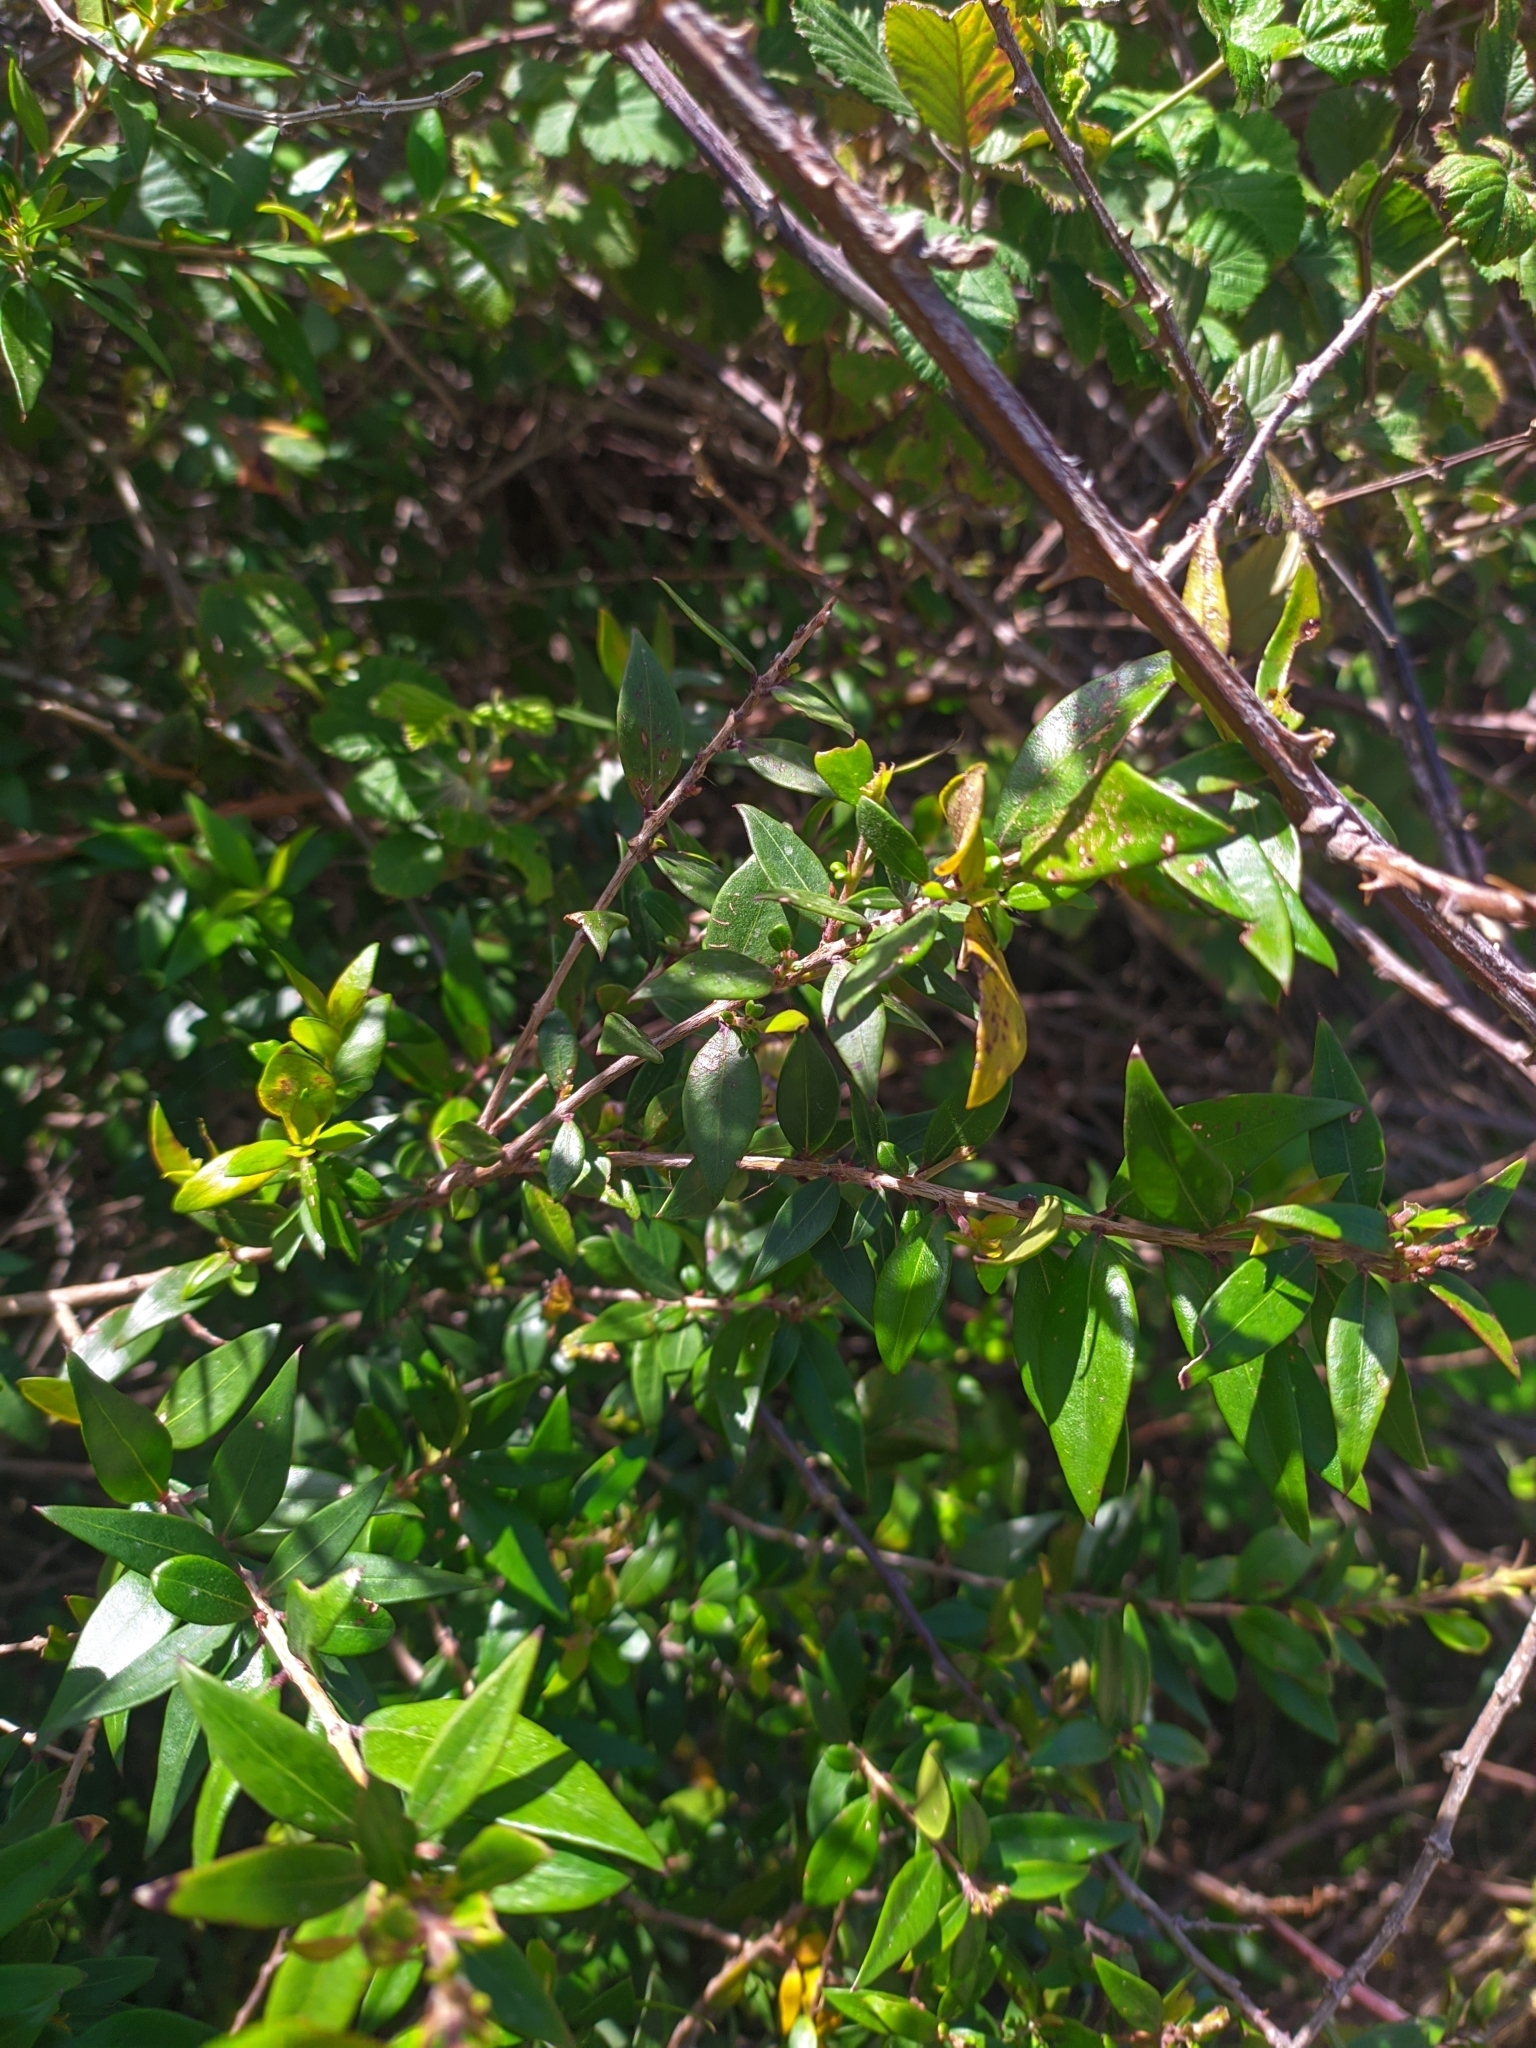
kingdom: Plantae
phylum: Tracheophyta
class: Magnoliopsida
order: Myrtales
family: Myrtaceae
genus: Myrtus
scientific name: Myrtus communis
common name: Myrtle
